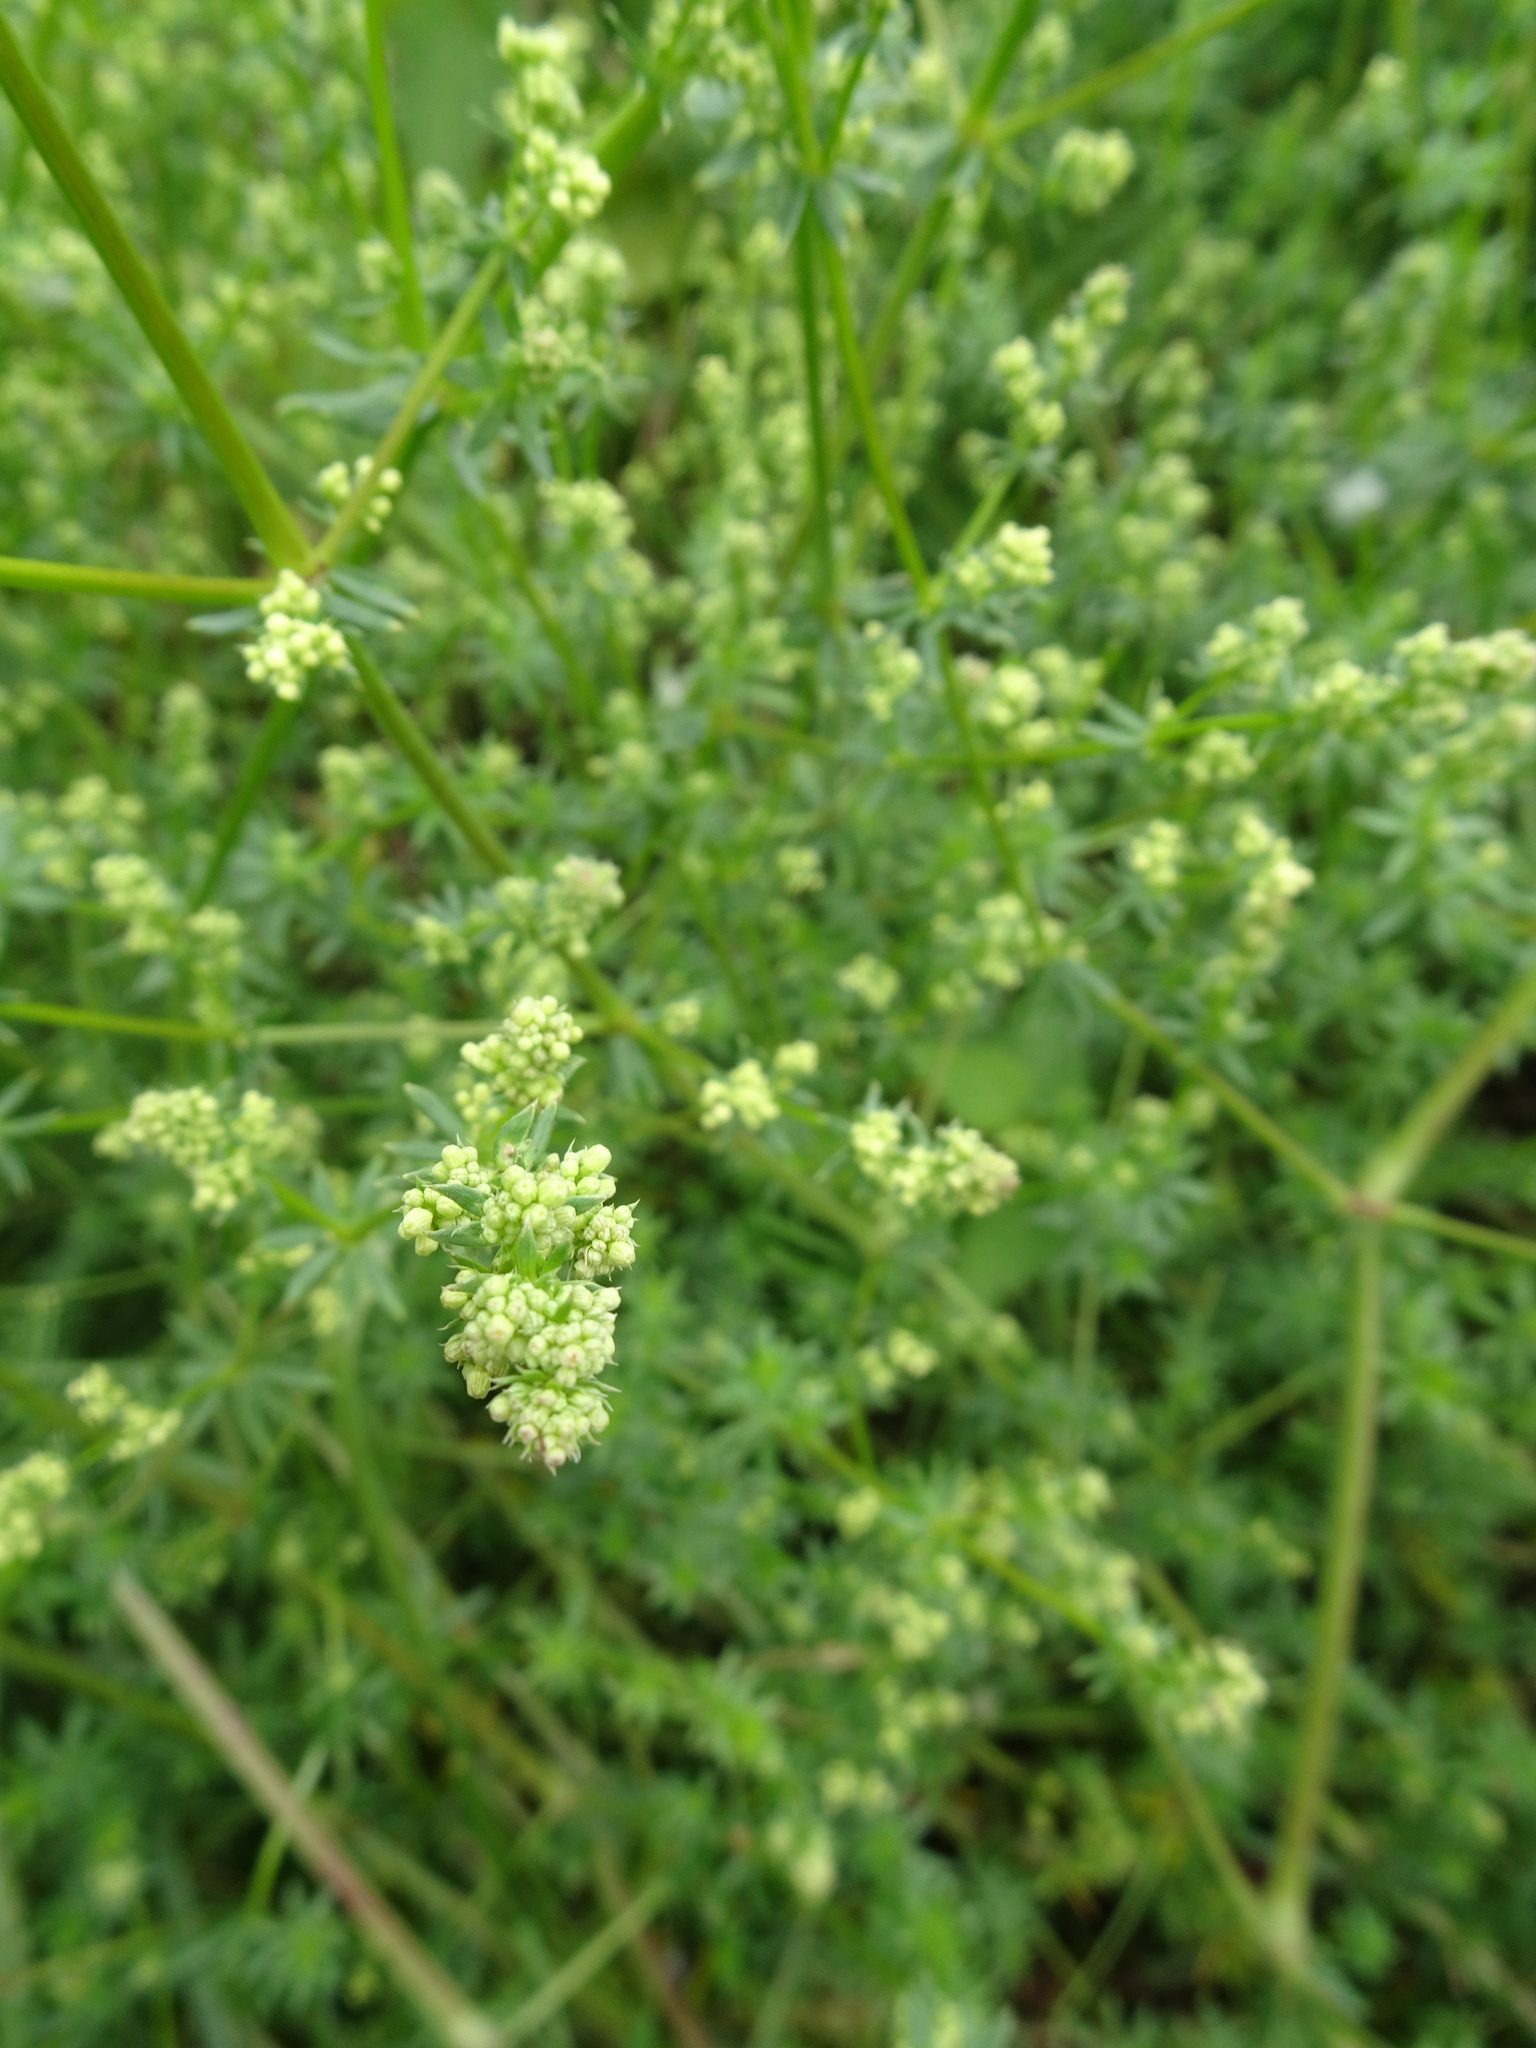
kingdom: Plantae
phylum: Tracheophyta
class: Magnoliopsida
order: Gentianales
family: Rubiaceae
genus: Galium
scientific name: Galium album
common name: White bedstraw
